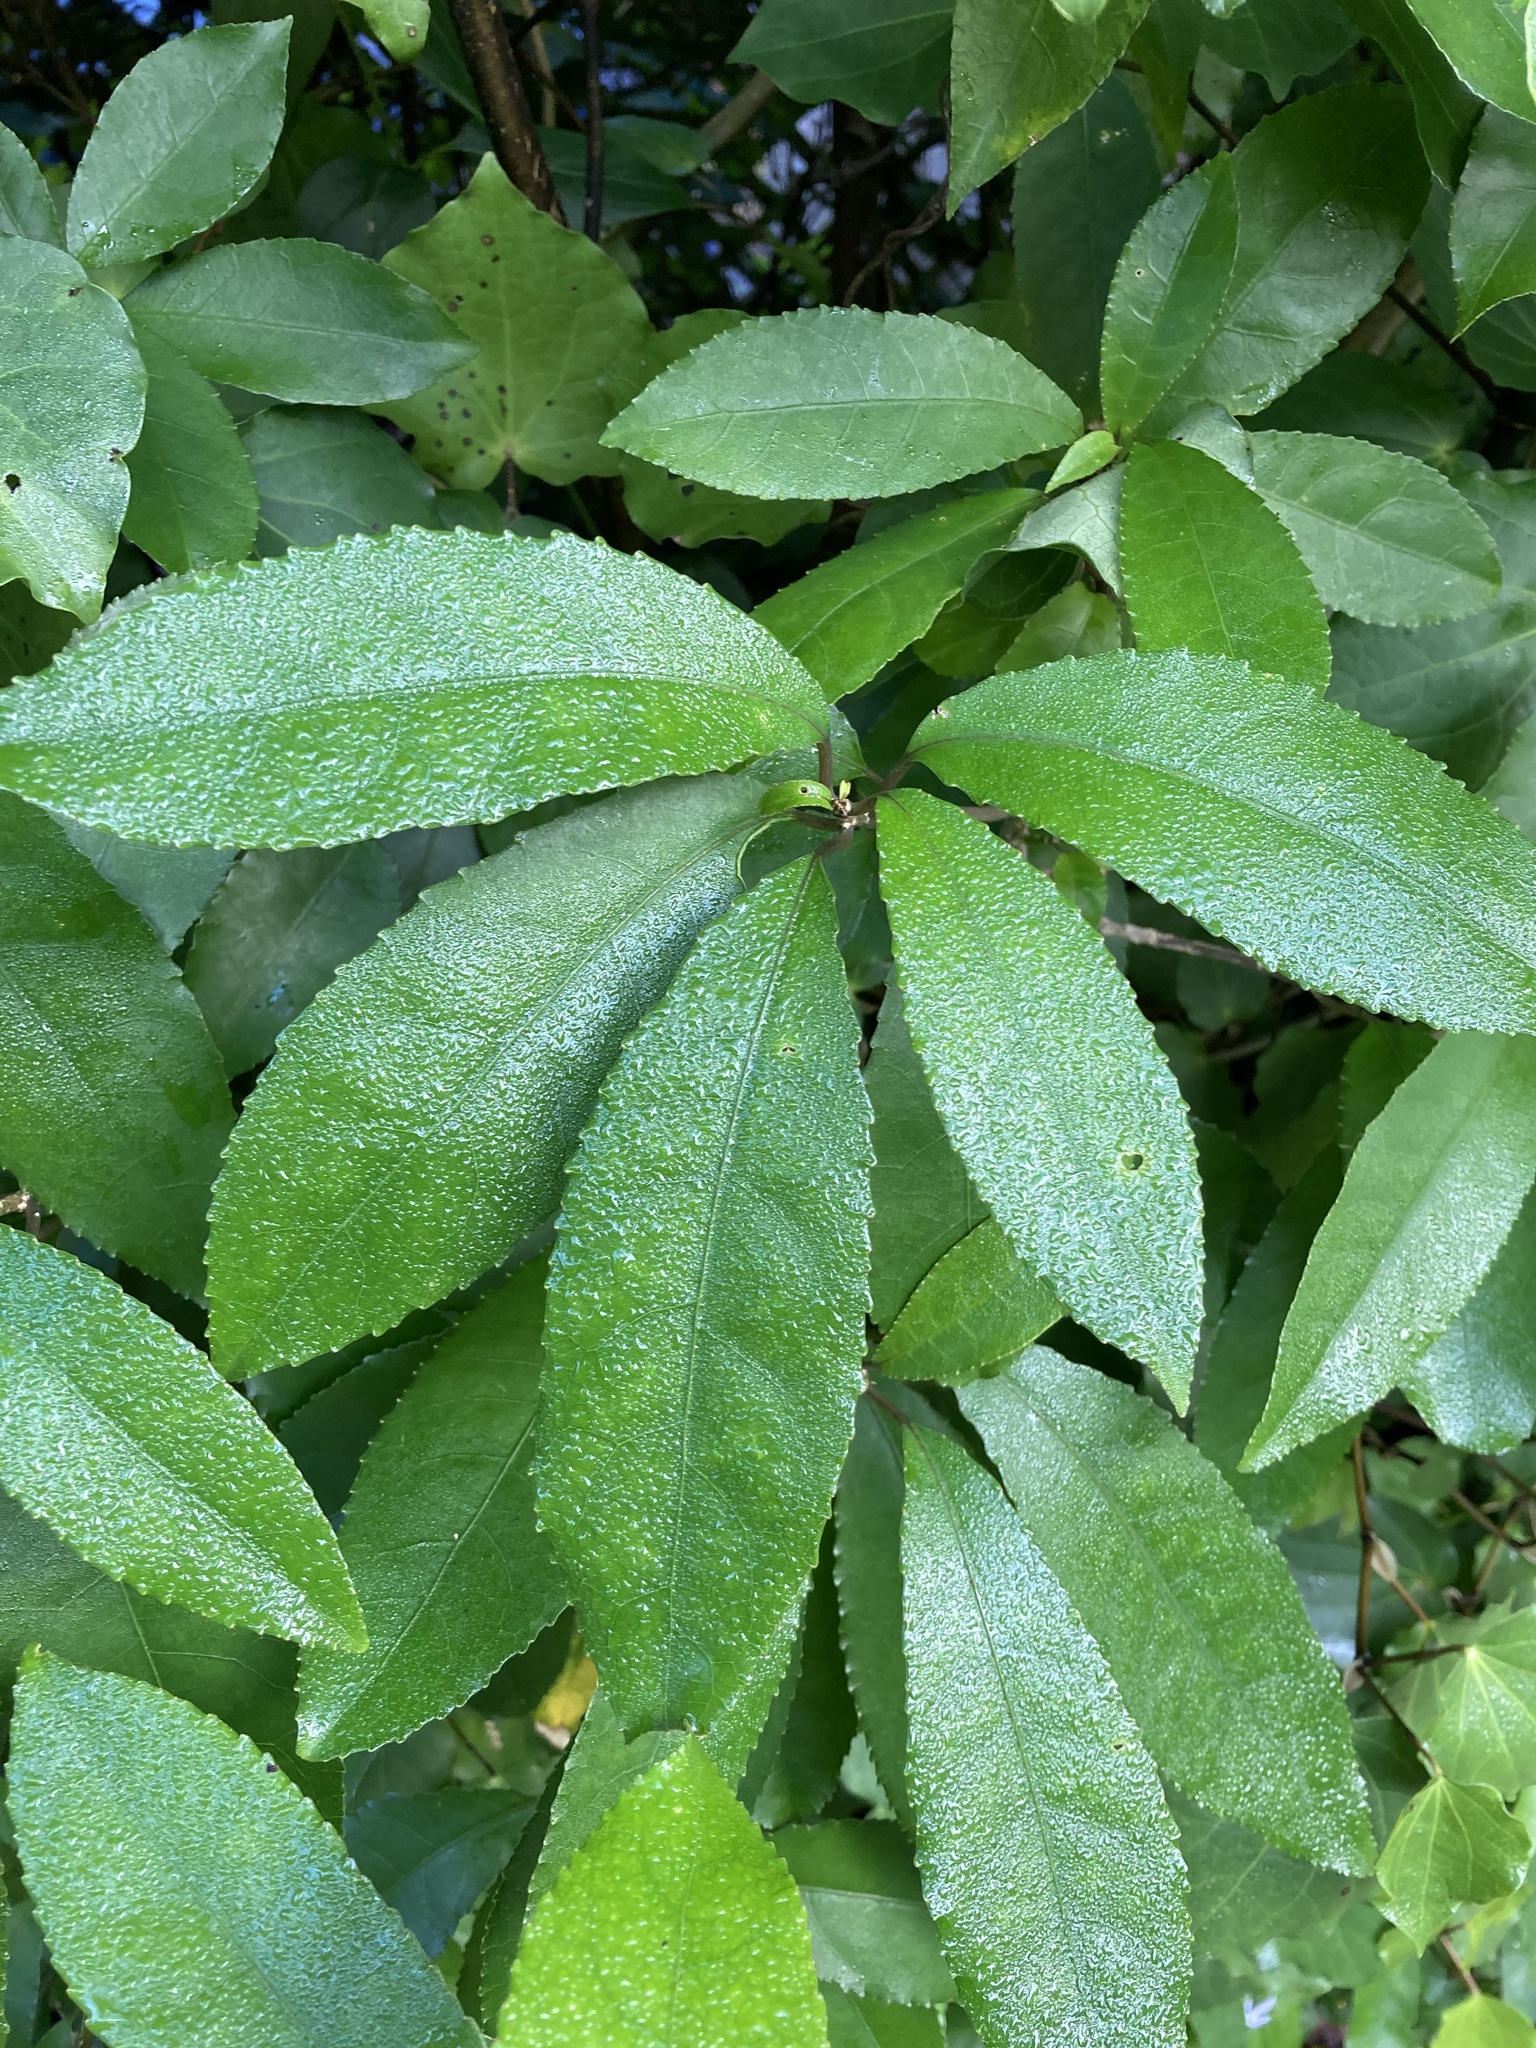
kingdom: Plantae
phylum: Tracheophyta
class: Magnoliopsida
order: Malpighiales
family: Violaceae
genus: Melicytus
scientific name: Melicytus ramiflorus
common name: Mahoe
